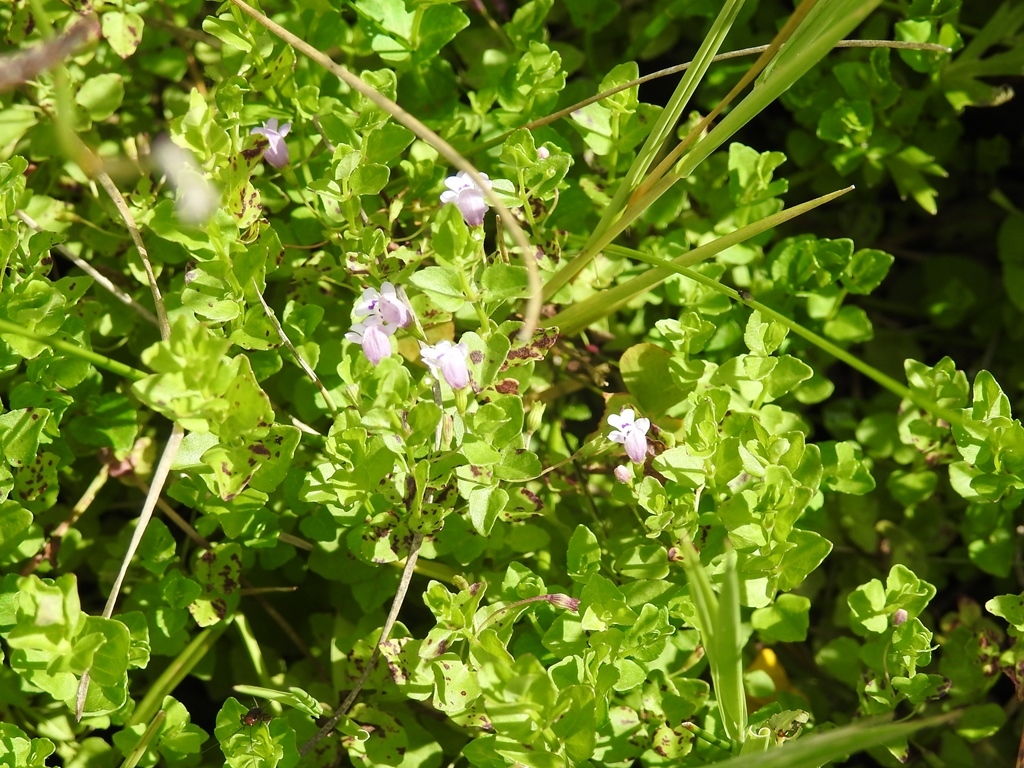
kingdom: Plantae
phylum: Tracheophyta
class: Magnoliopsida
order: Lamiales
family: Lamiaceae
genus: Clinopodium
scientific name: Clinopodium brownei
